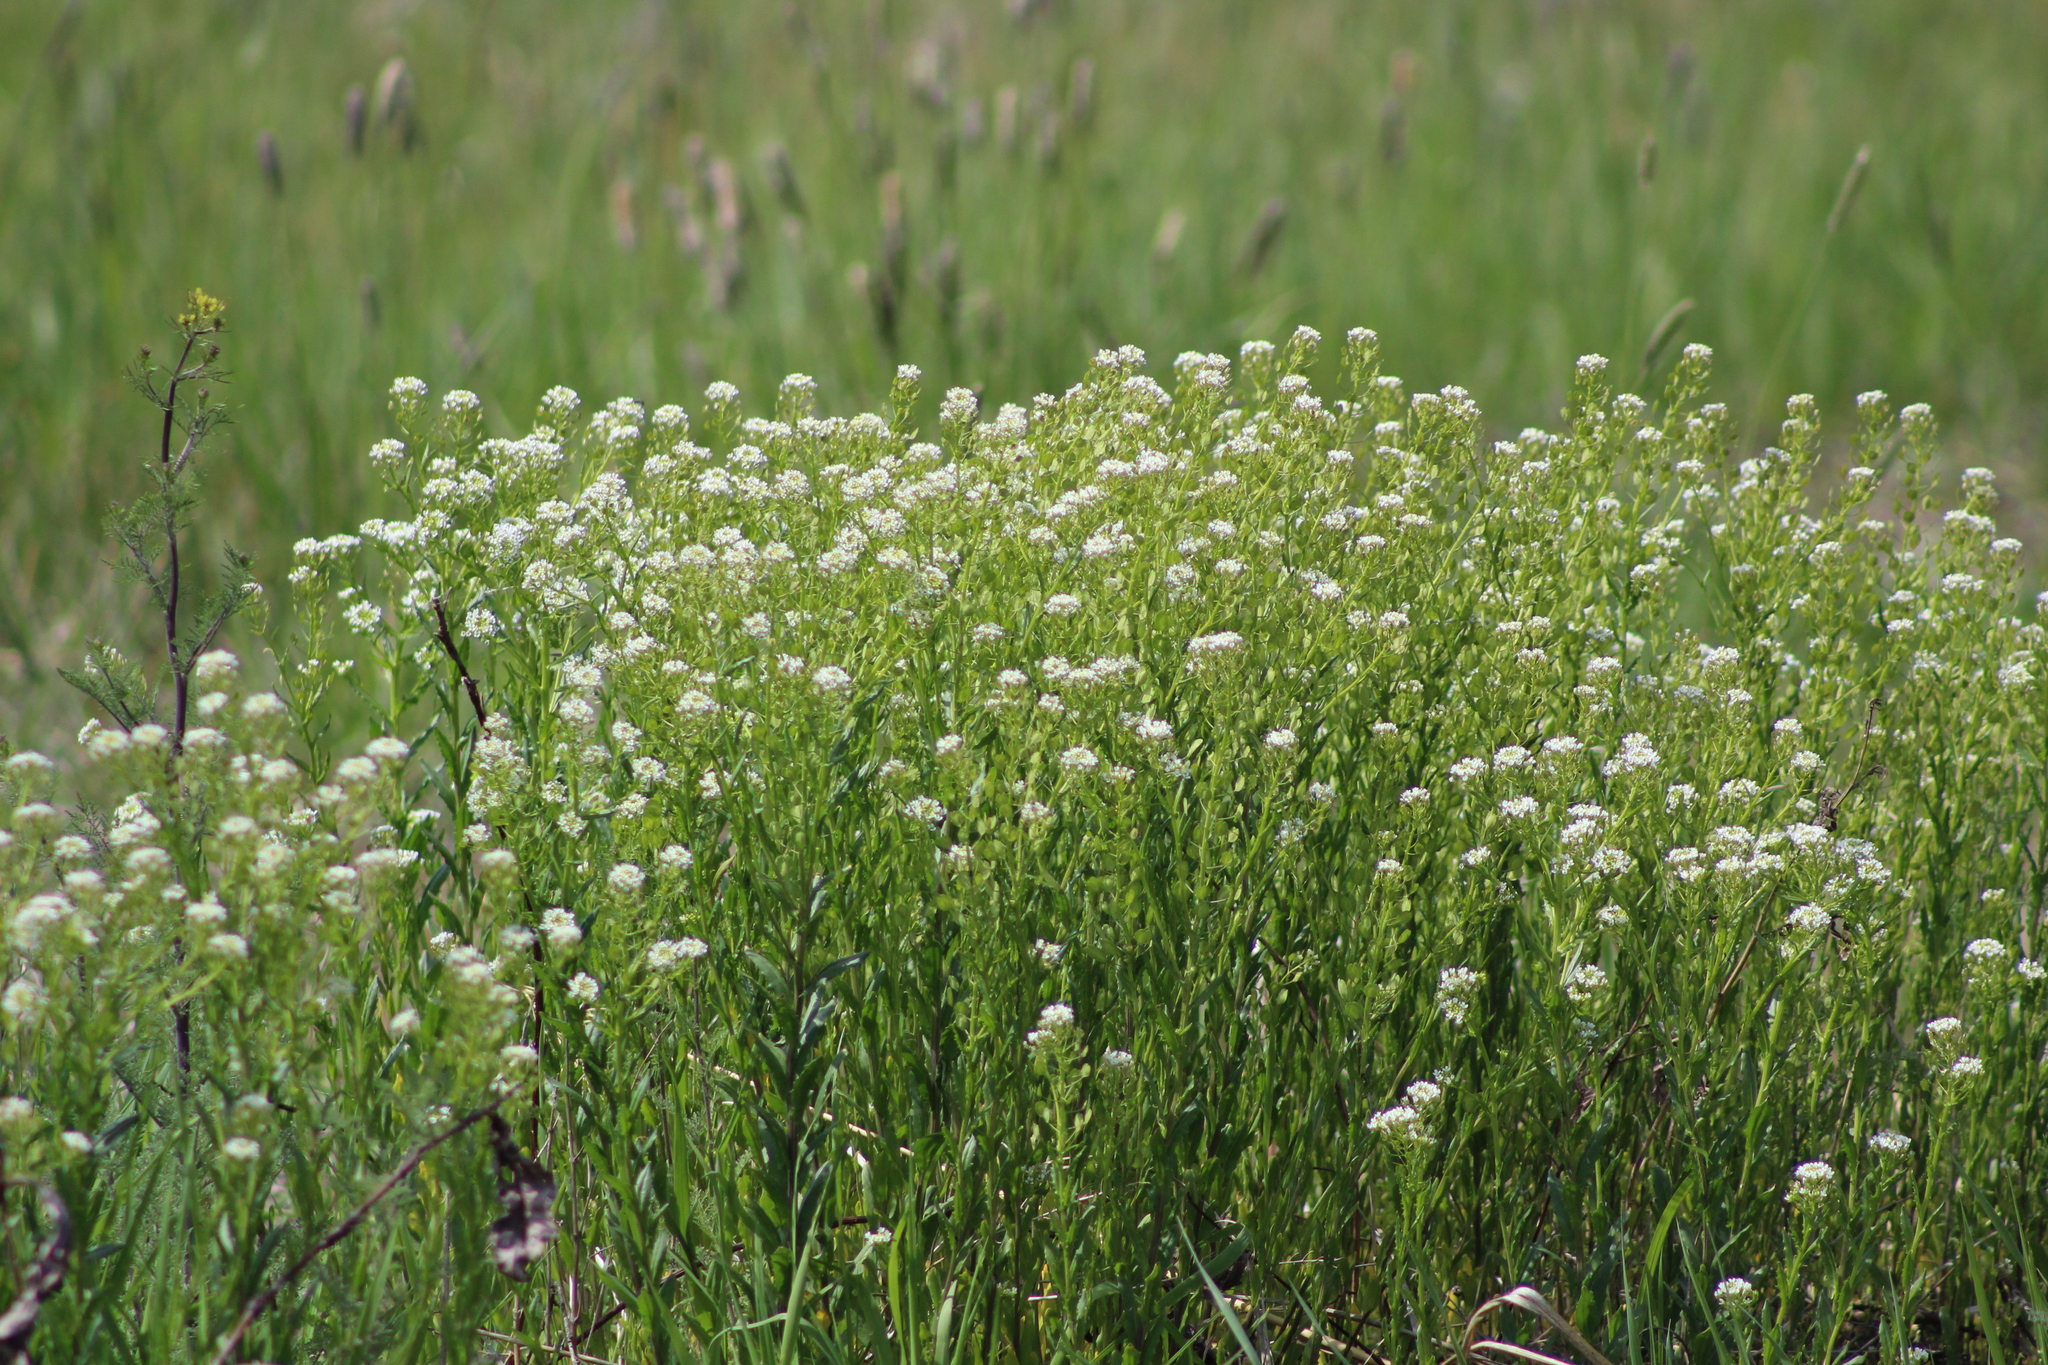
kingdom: Plantae
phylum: Tracheophyta
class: Magnoliopsida
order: Brassicales
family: Brassicaceae
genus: Thlaspi
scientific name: Thlaspi arvense
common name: Field pennycress
